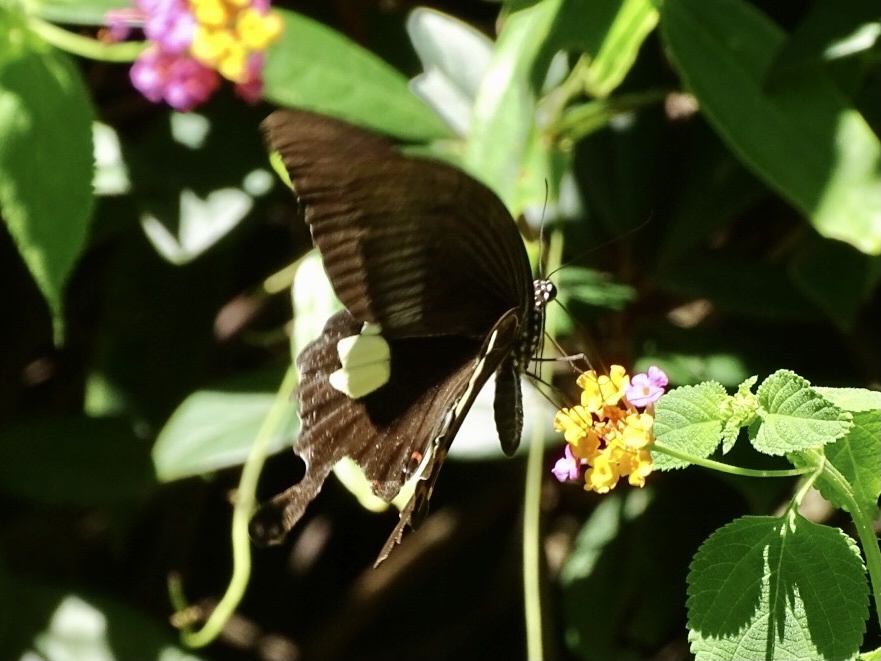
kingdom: Animalia
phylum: Arthropoda
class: Insecta
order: Lepidoptera
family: Papilionidae
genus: Papilio
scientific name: Papilio helenus
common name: Red helen
